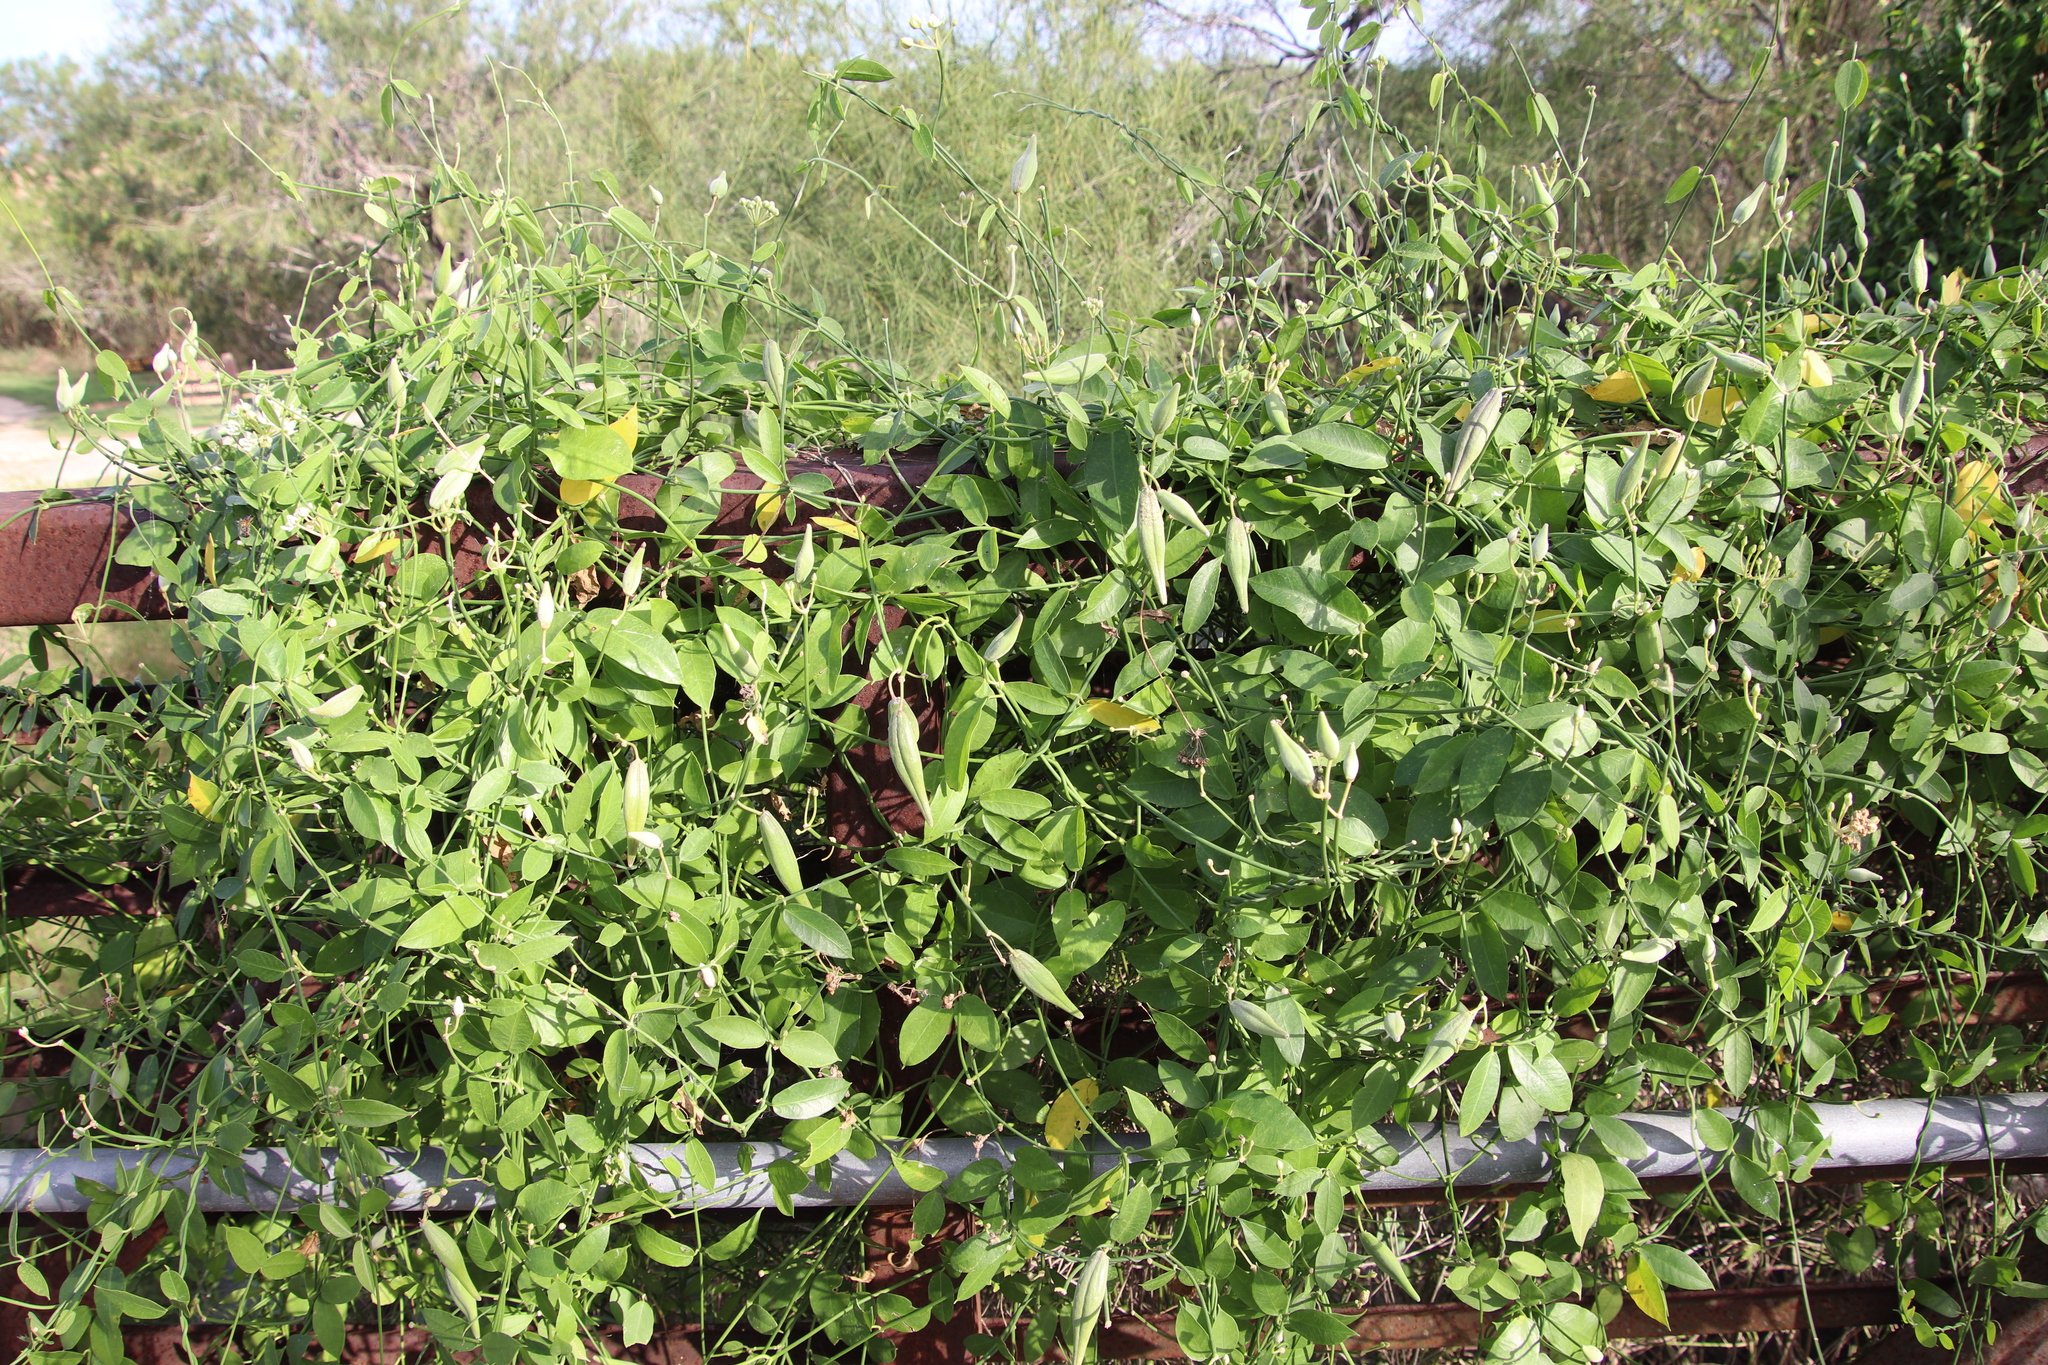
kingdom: Plantae
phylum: Tracheophyta
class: Magnoliopsida
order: Gentianales
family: Apocynaceae
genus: Funastrum
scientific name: Funastrum clausum
